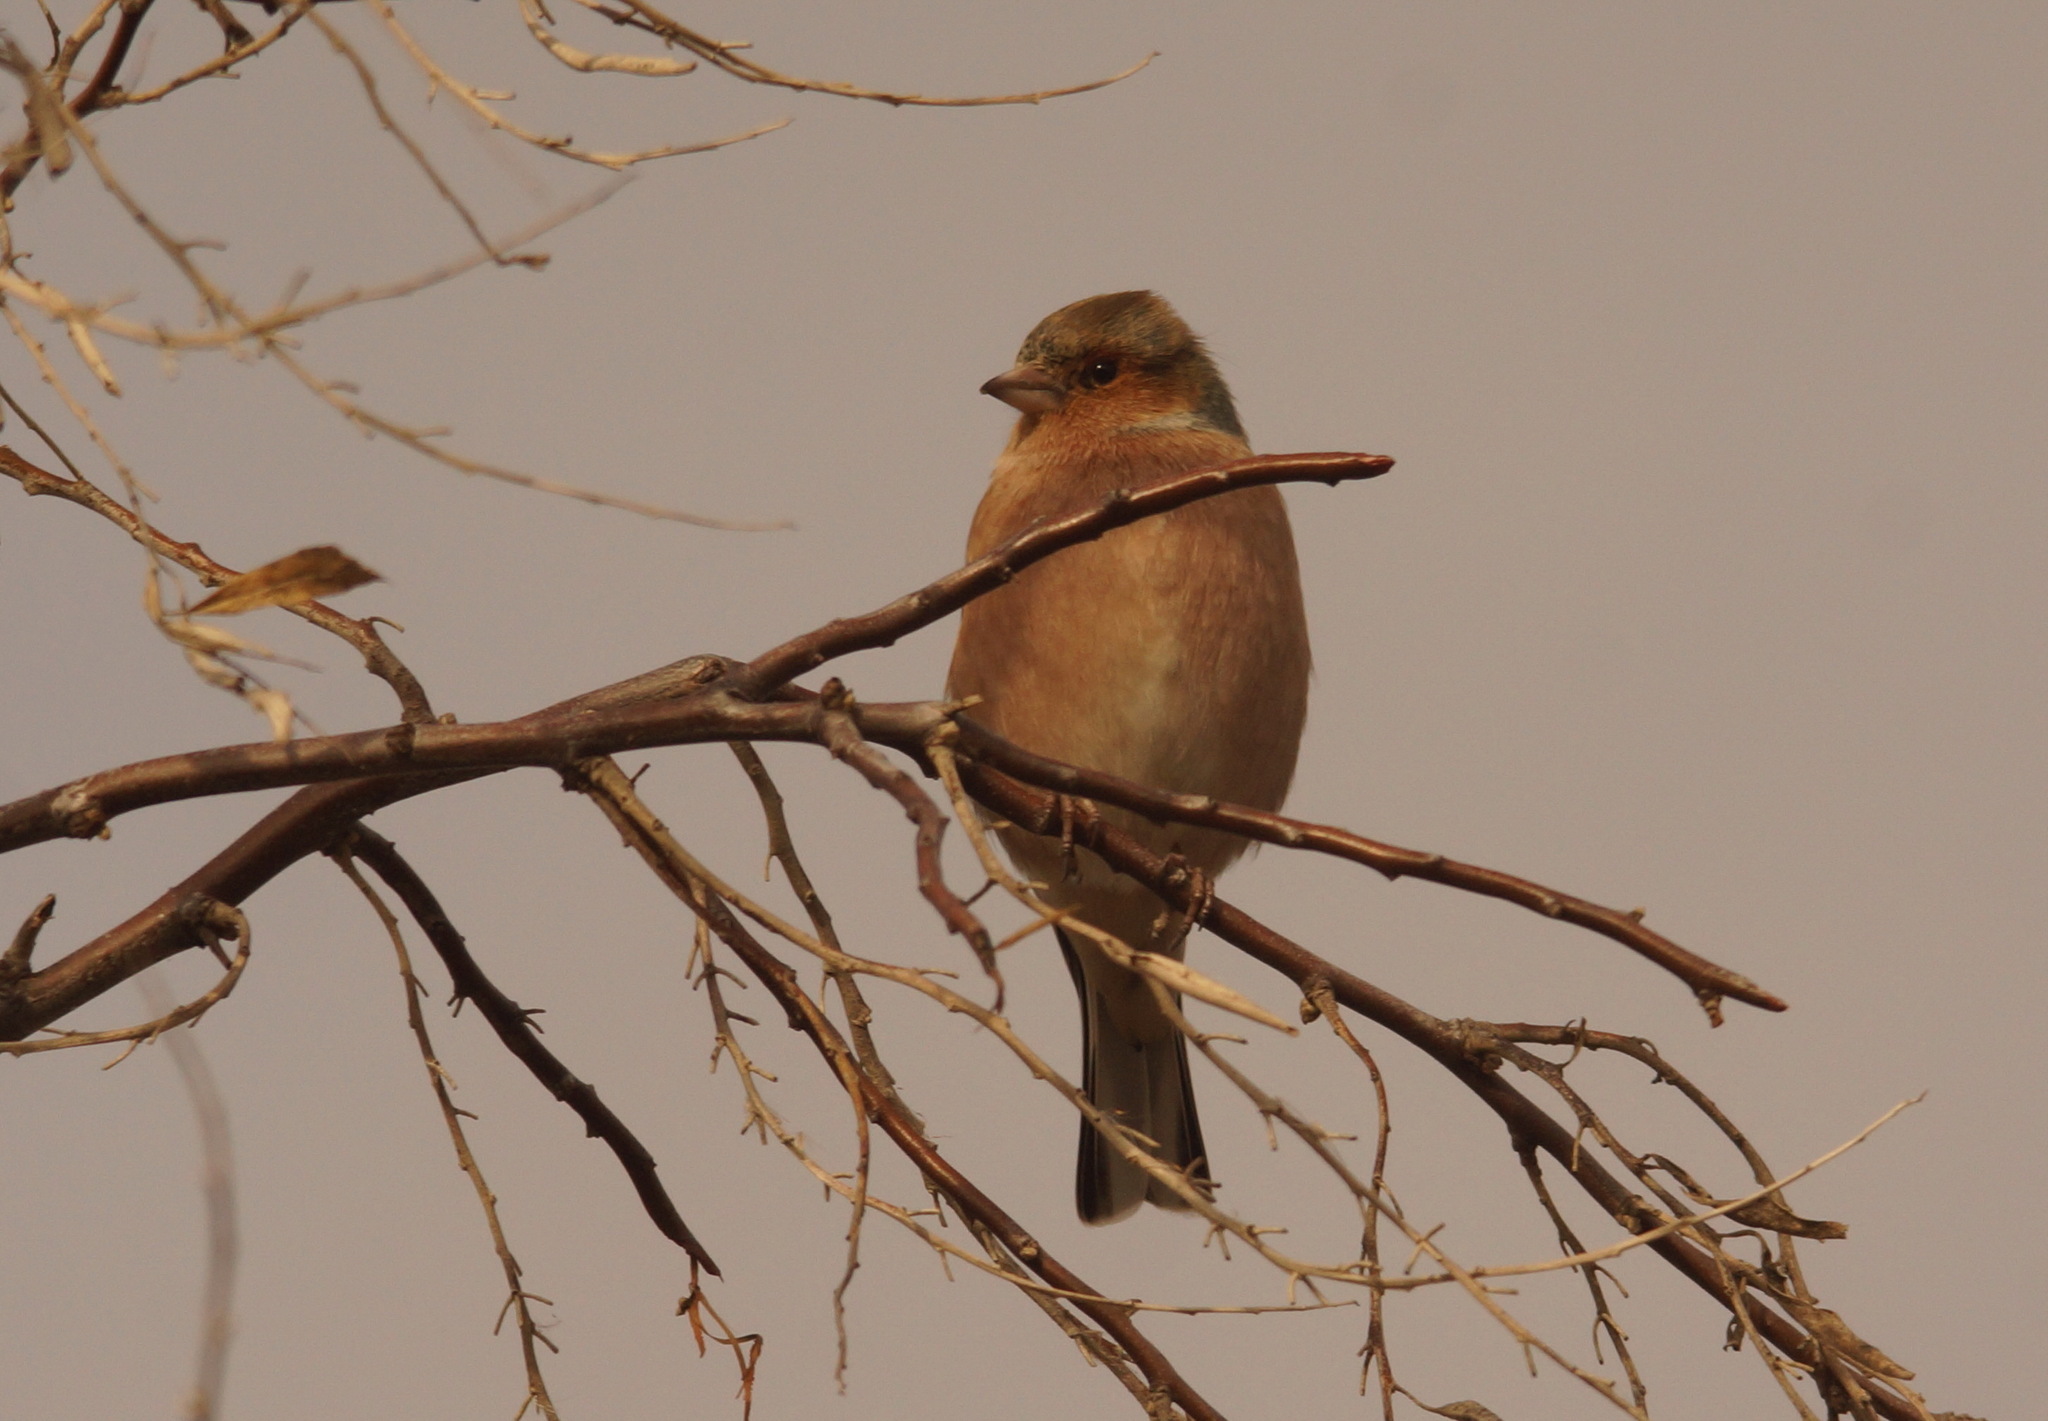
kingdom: Animalia
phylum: Chordata
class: Aves
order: Passeriformes
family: Fringillidae
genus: Fringilla
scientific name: Fringilla coelebs
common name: Common chaffinch
